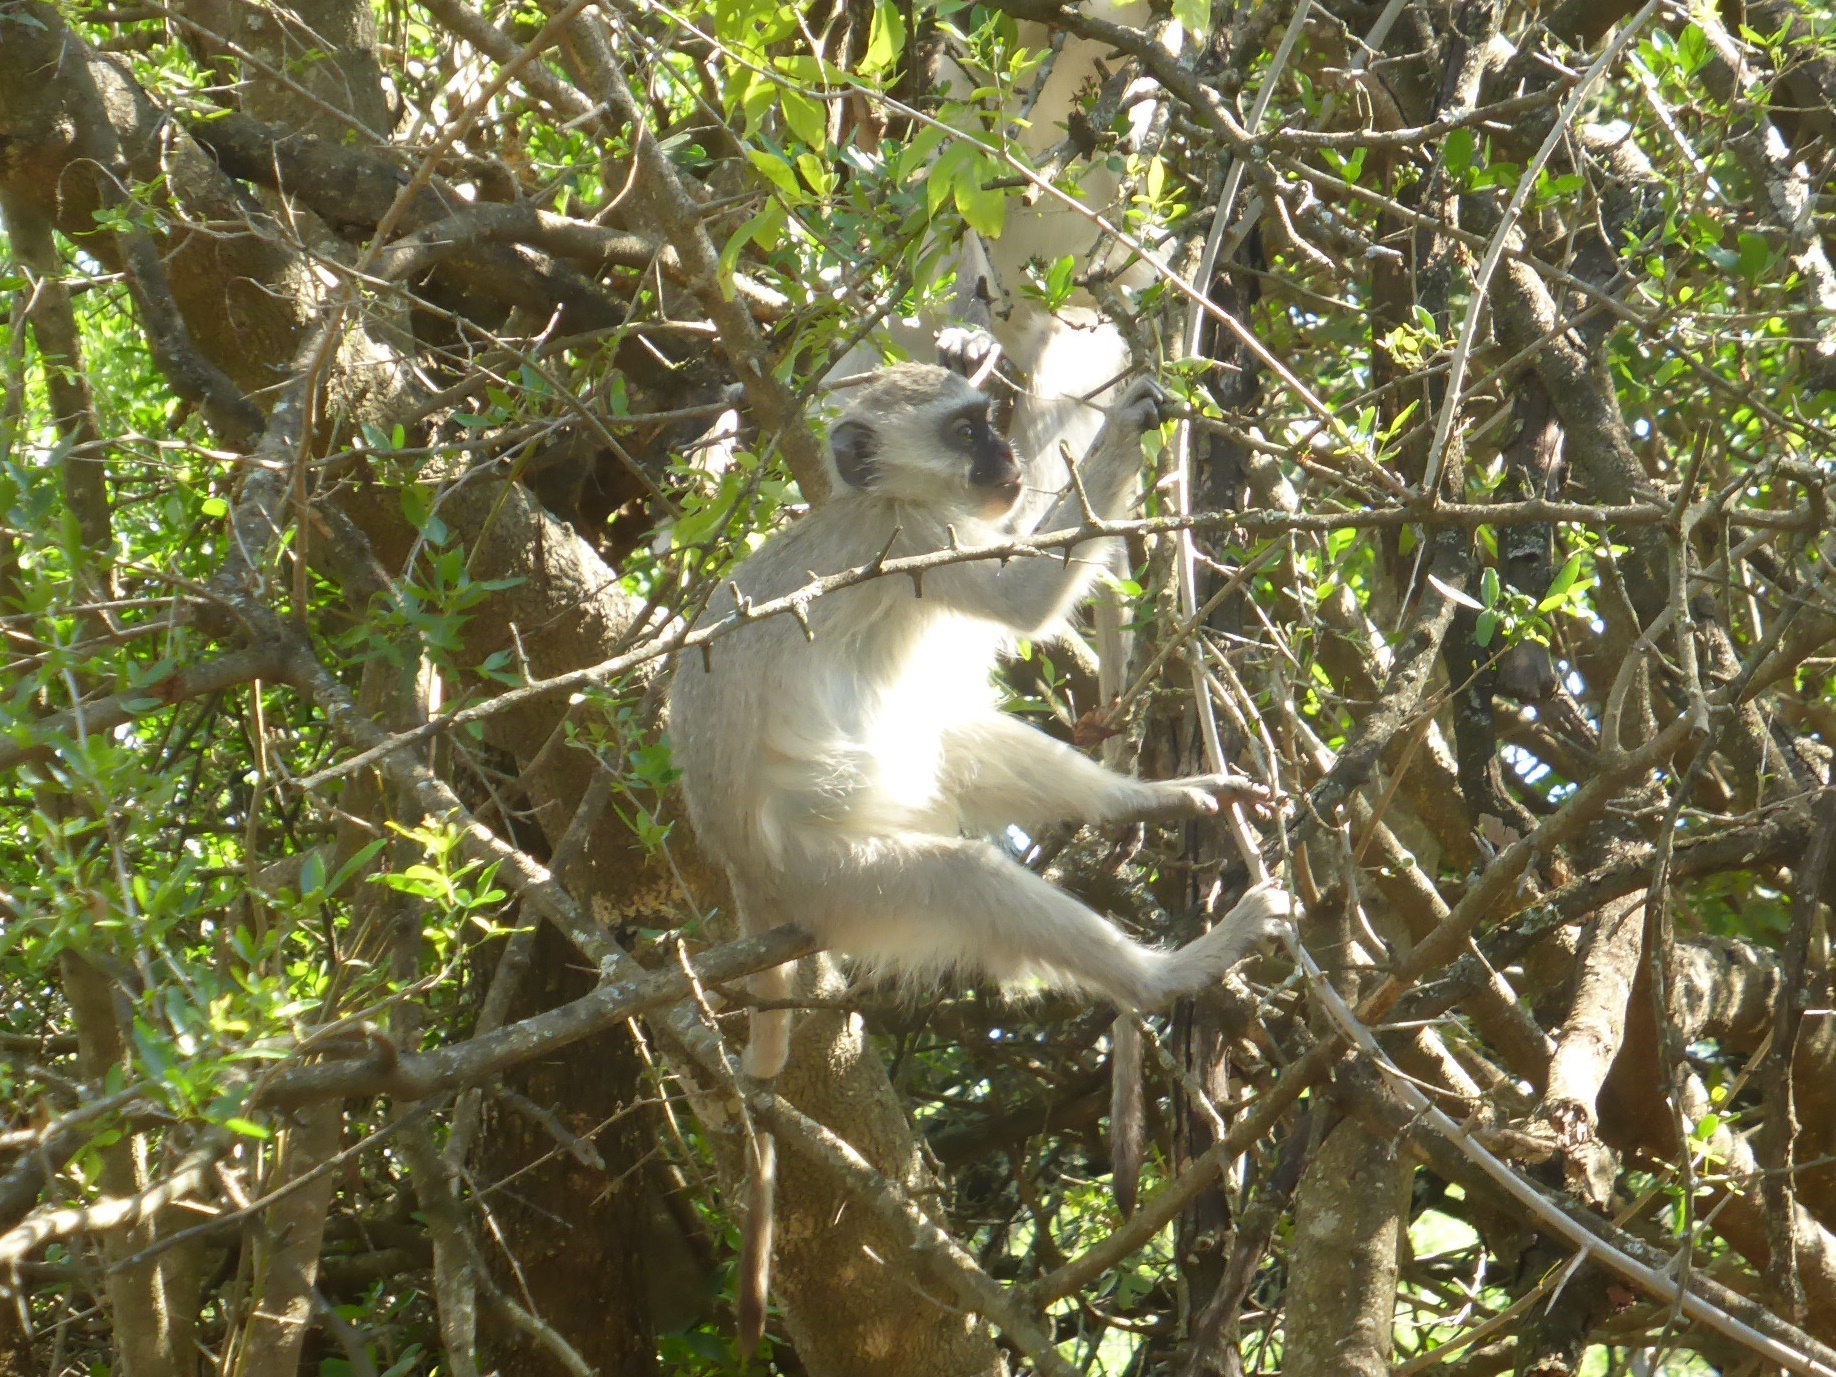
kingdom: Animalia
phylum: Chordata
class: Mammalia
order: Primates
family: Cercopithecidae
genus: Chlorocebus
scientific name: Chlorocebus pygerythrus
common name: Vervet monkey
